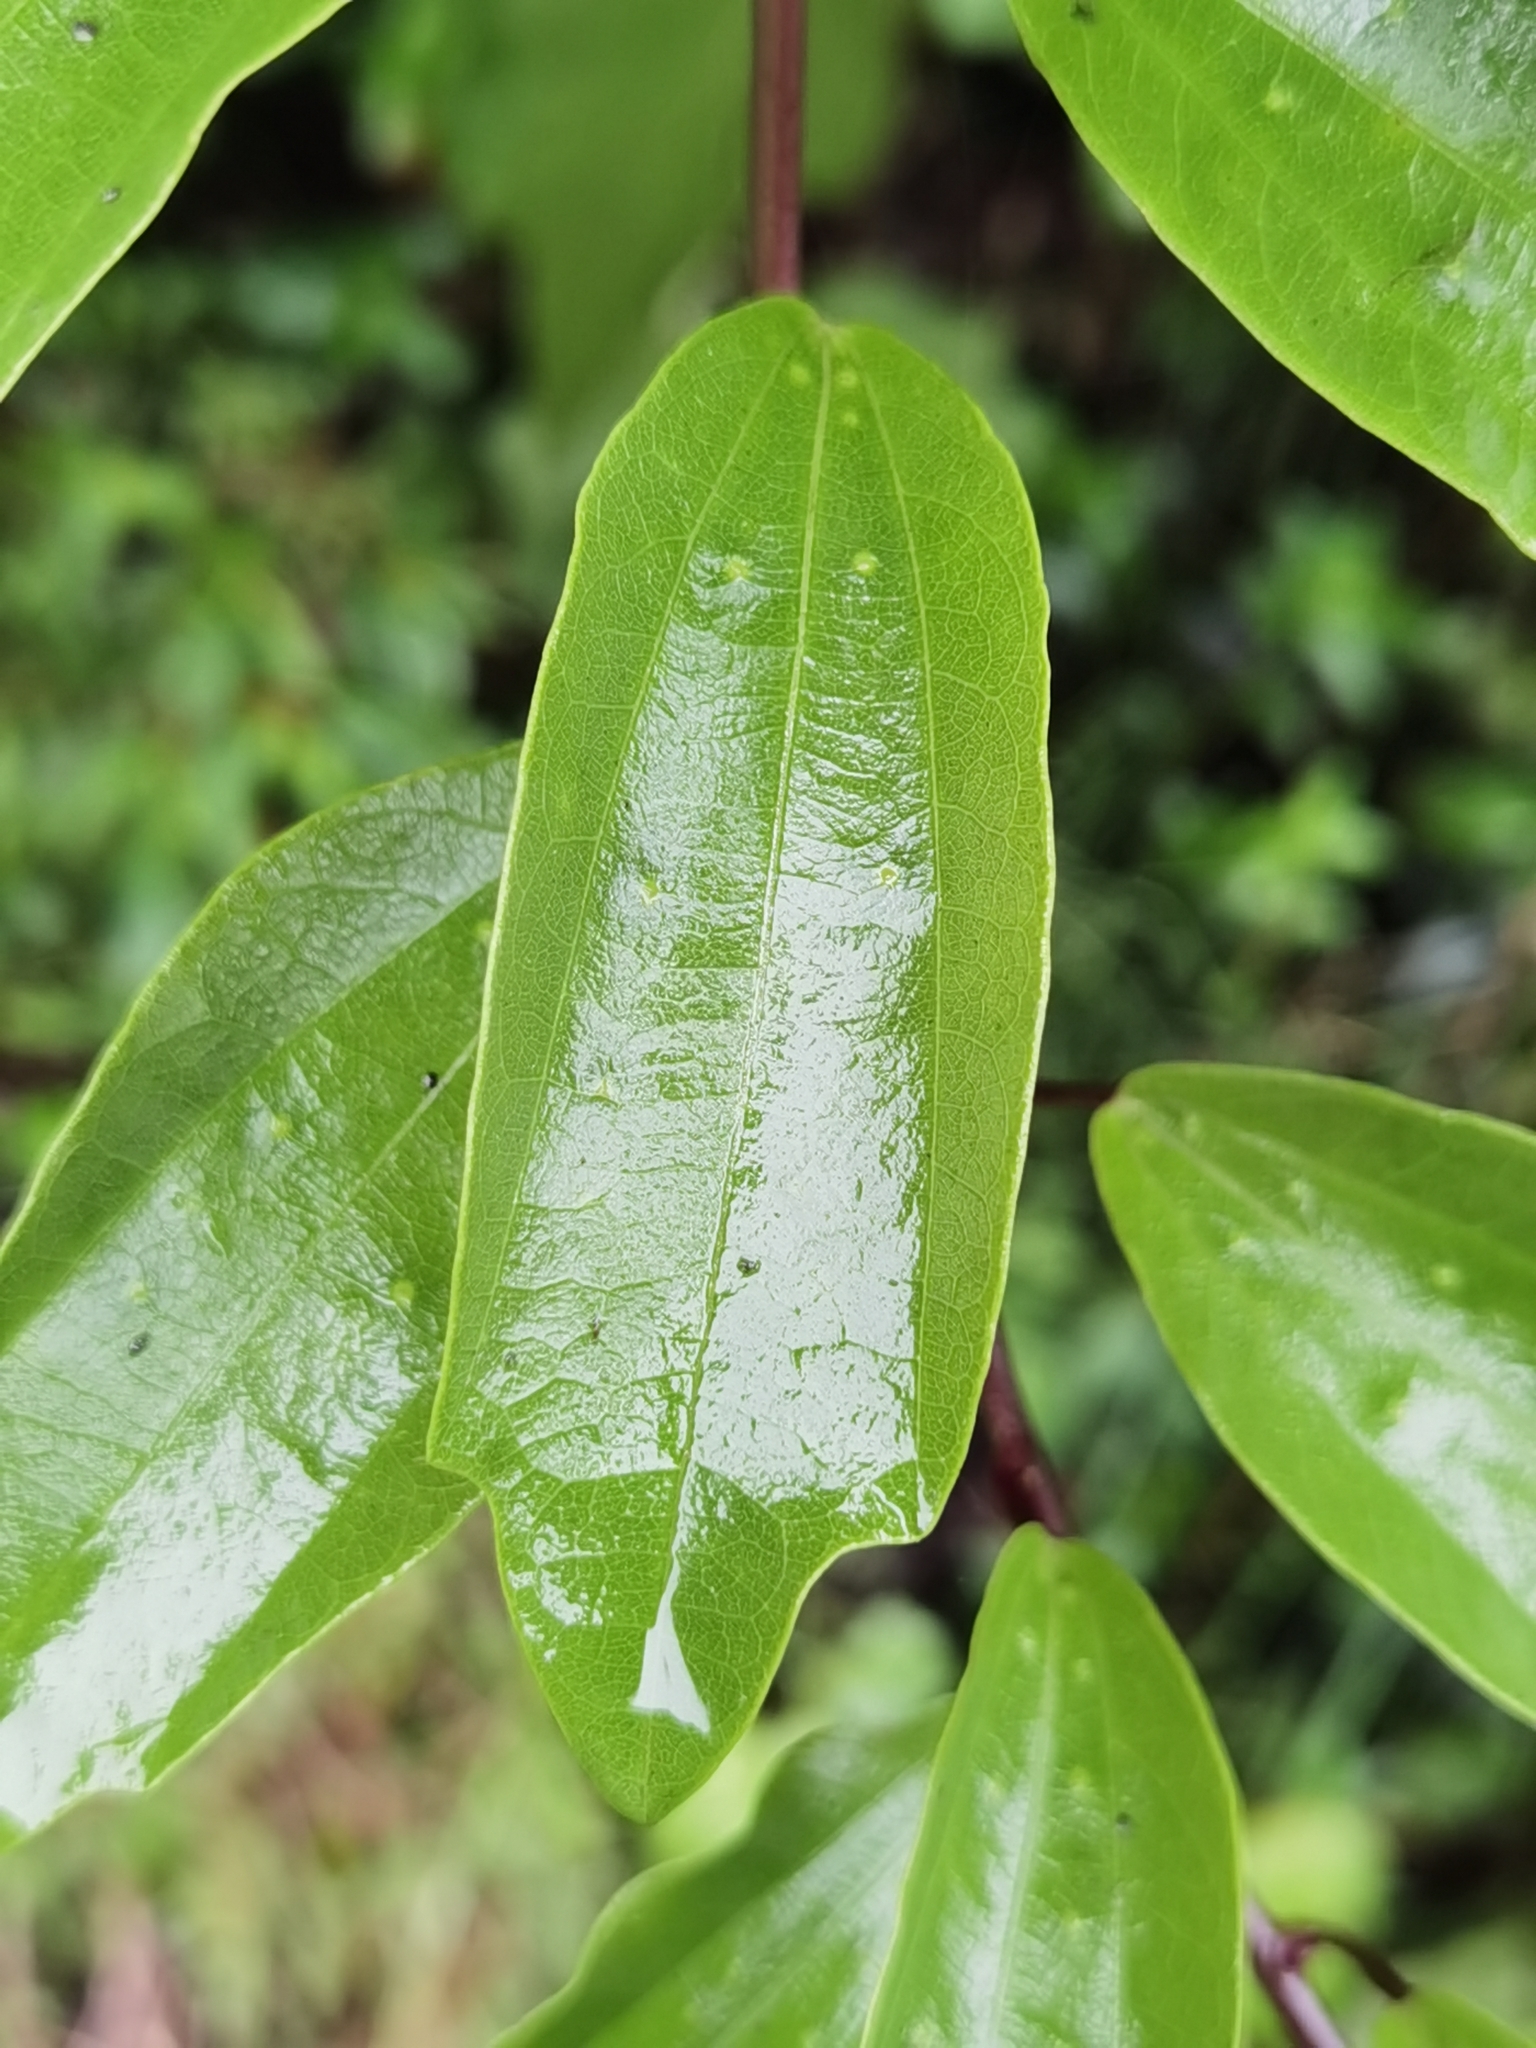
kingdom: Plantae
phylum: Tracheophyta
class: Magnoliopsida
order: Malpighiales
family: Passifloraceae
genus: Passiflora
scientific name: Passiflora lancearia
